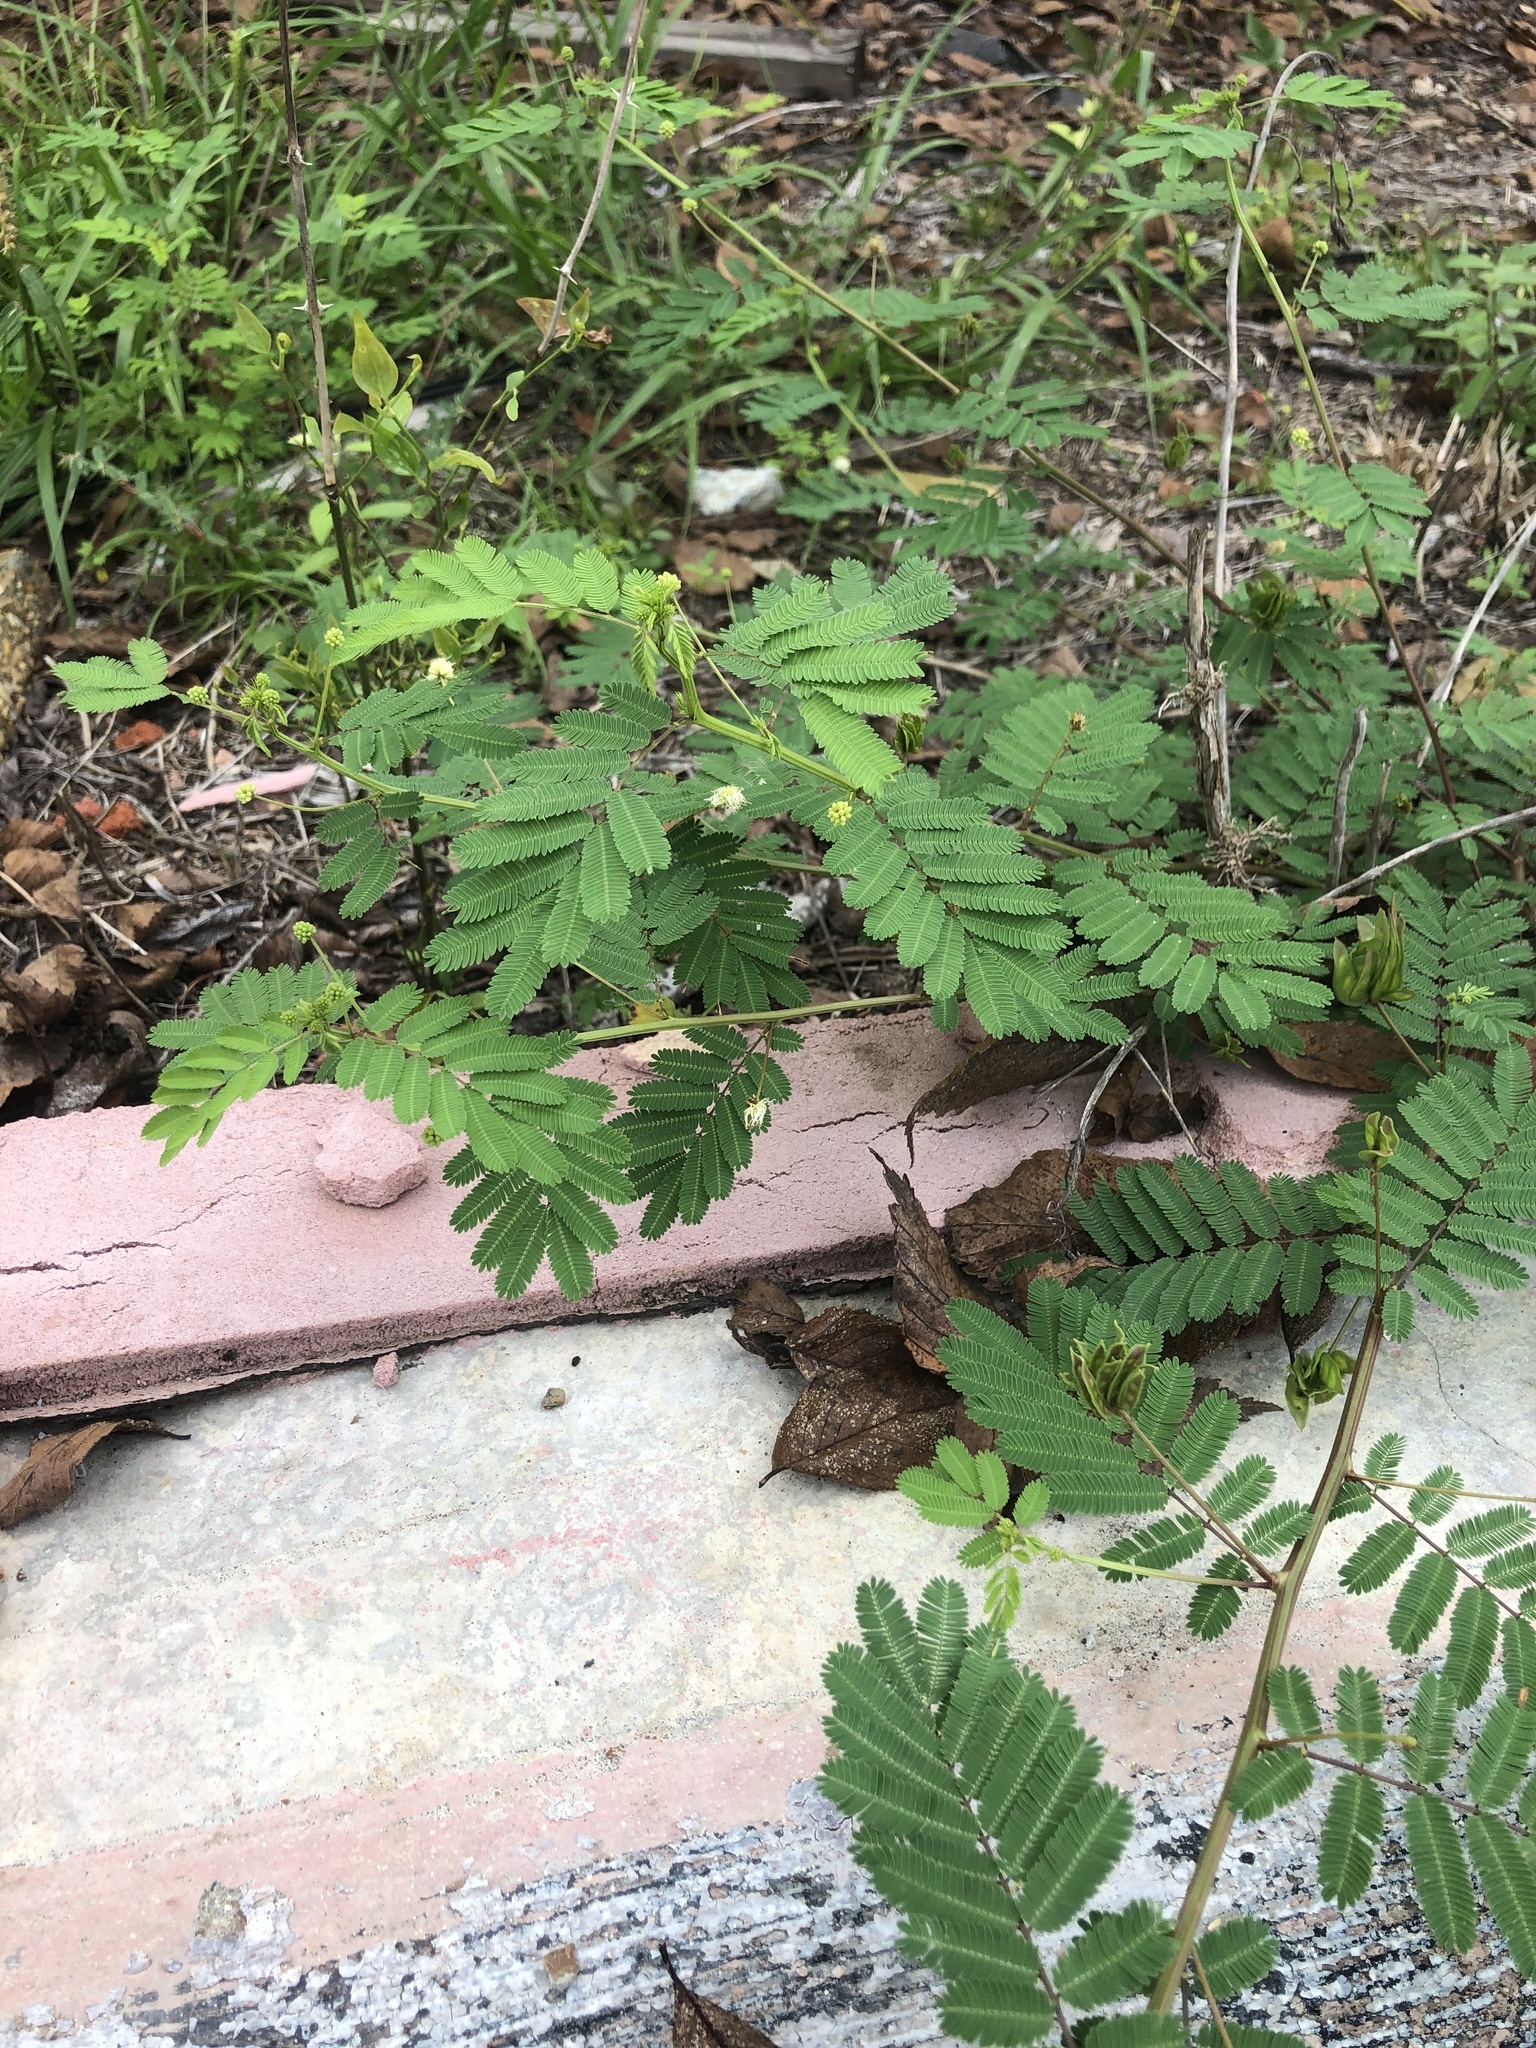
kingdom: Plantae
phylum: Tracheophyta
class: Magnoliopsida
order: Fabales
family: Fabaceae
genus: Desmanthus
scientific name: Desmanthus illinoensis
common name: Illinois bundle-flower
